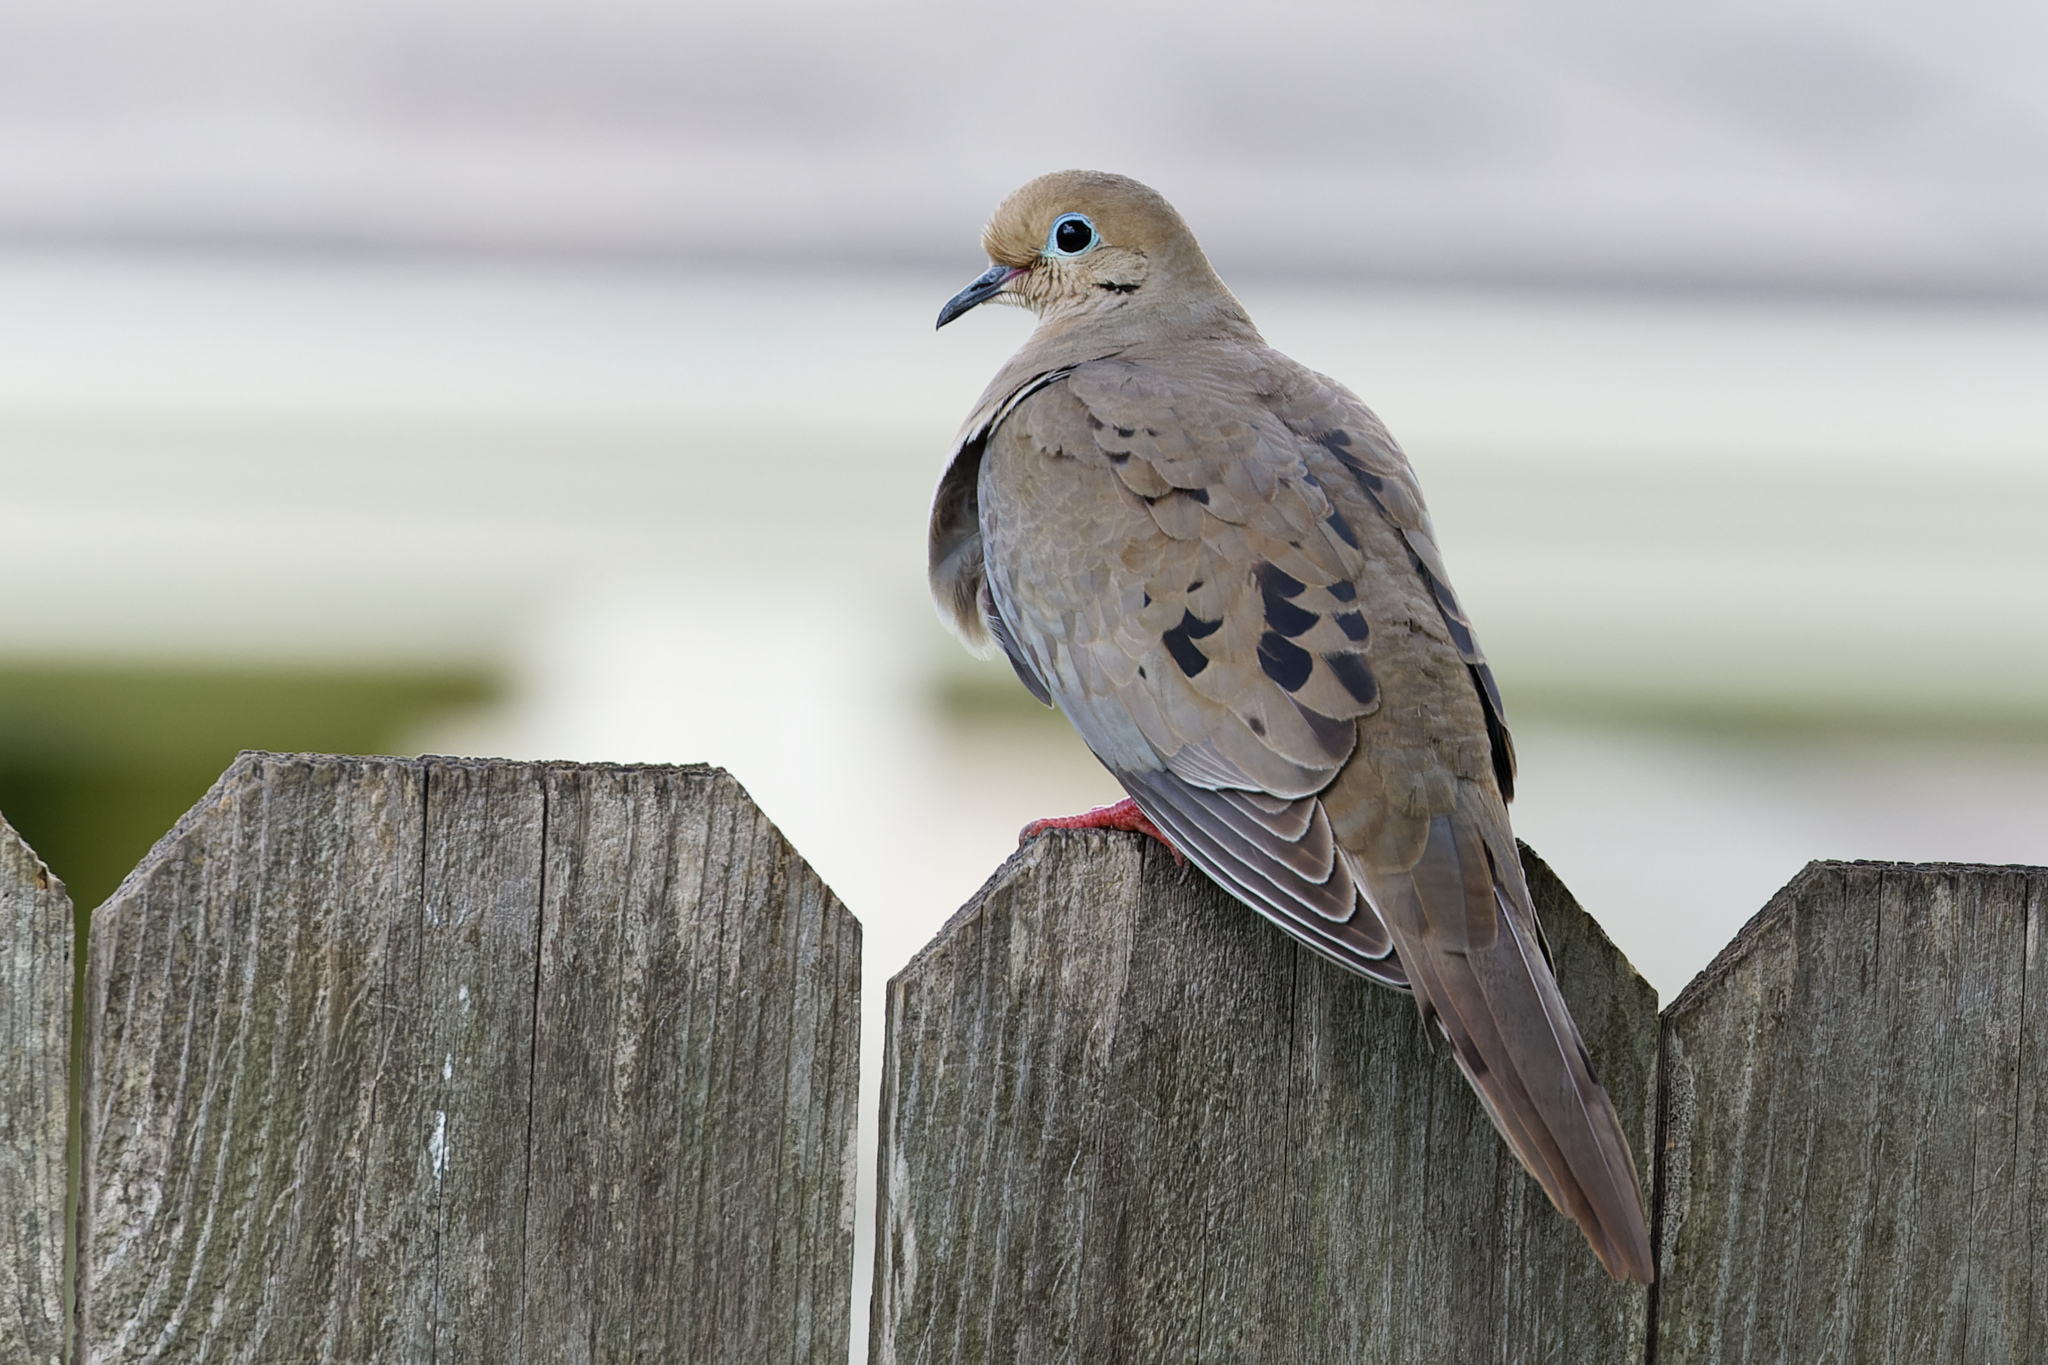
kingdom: Animalia
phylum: Chordata
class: Aves
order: Columbiformes
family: Columbidae
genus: Zenaida
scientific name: Zenaida macroura
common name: Mourning dove
